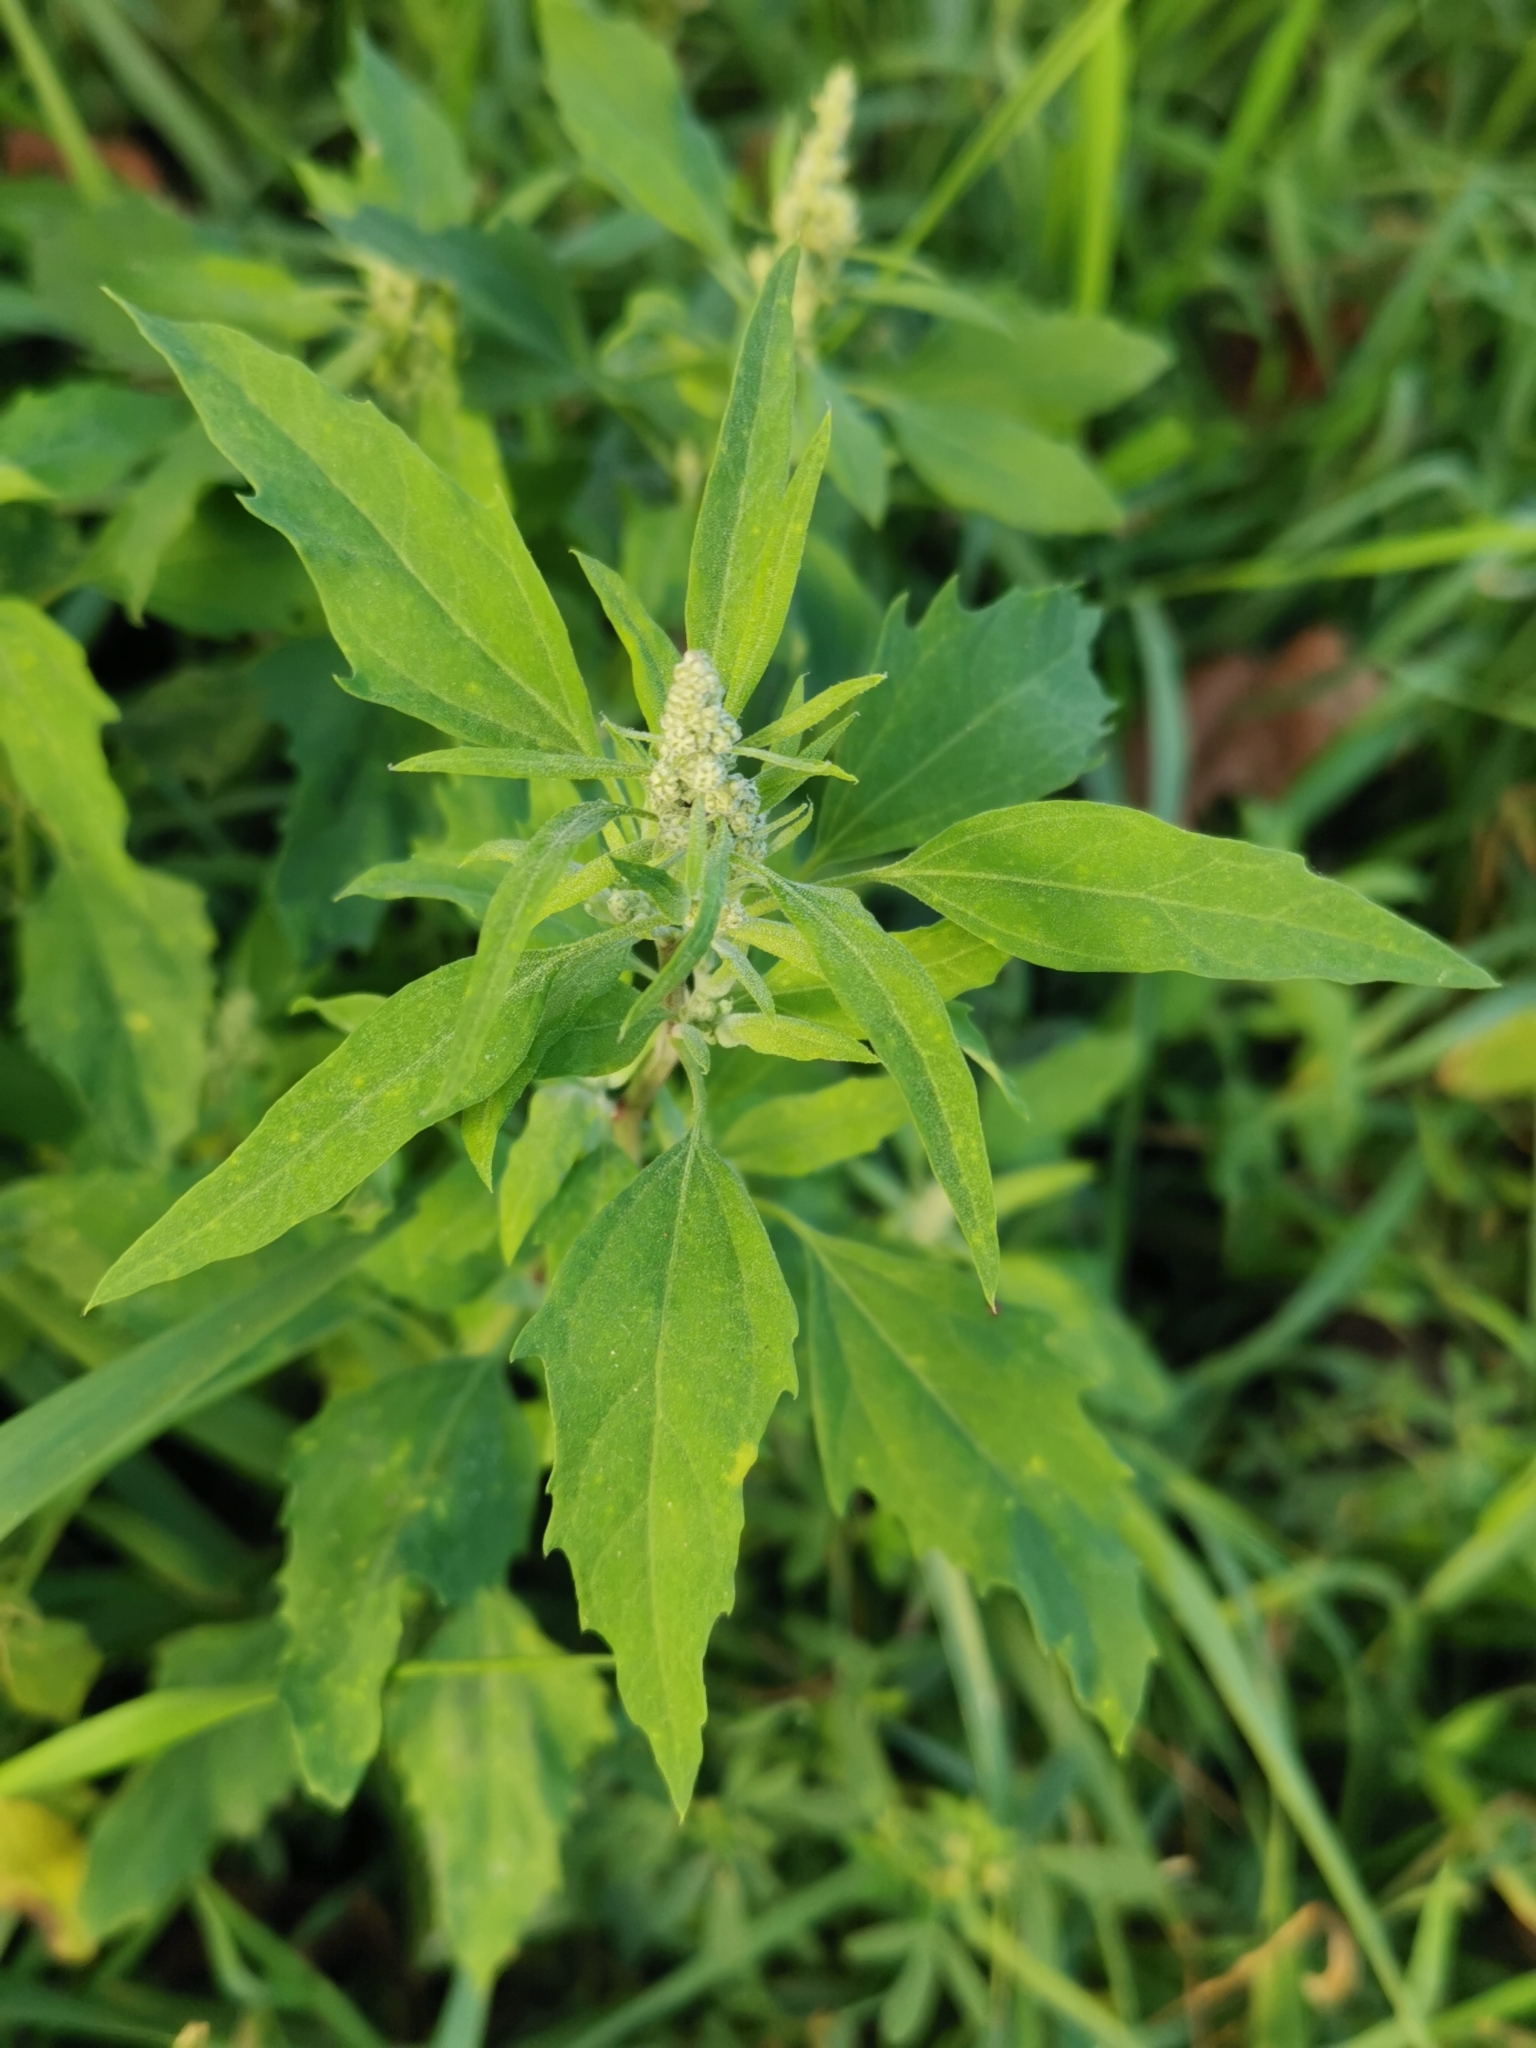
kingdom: Plantae
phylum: Tracheophyta
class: Magnoliopsida
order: Caryophyllales
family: Amaranthaceae
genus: Chenopodium
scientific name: Chenopodium album
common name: Fat-hen
